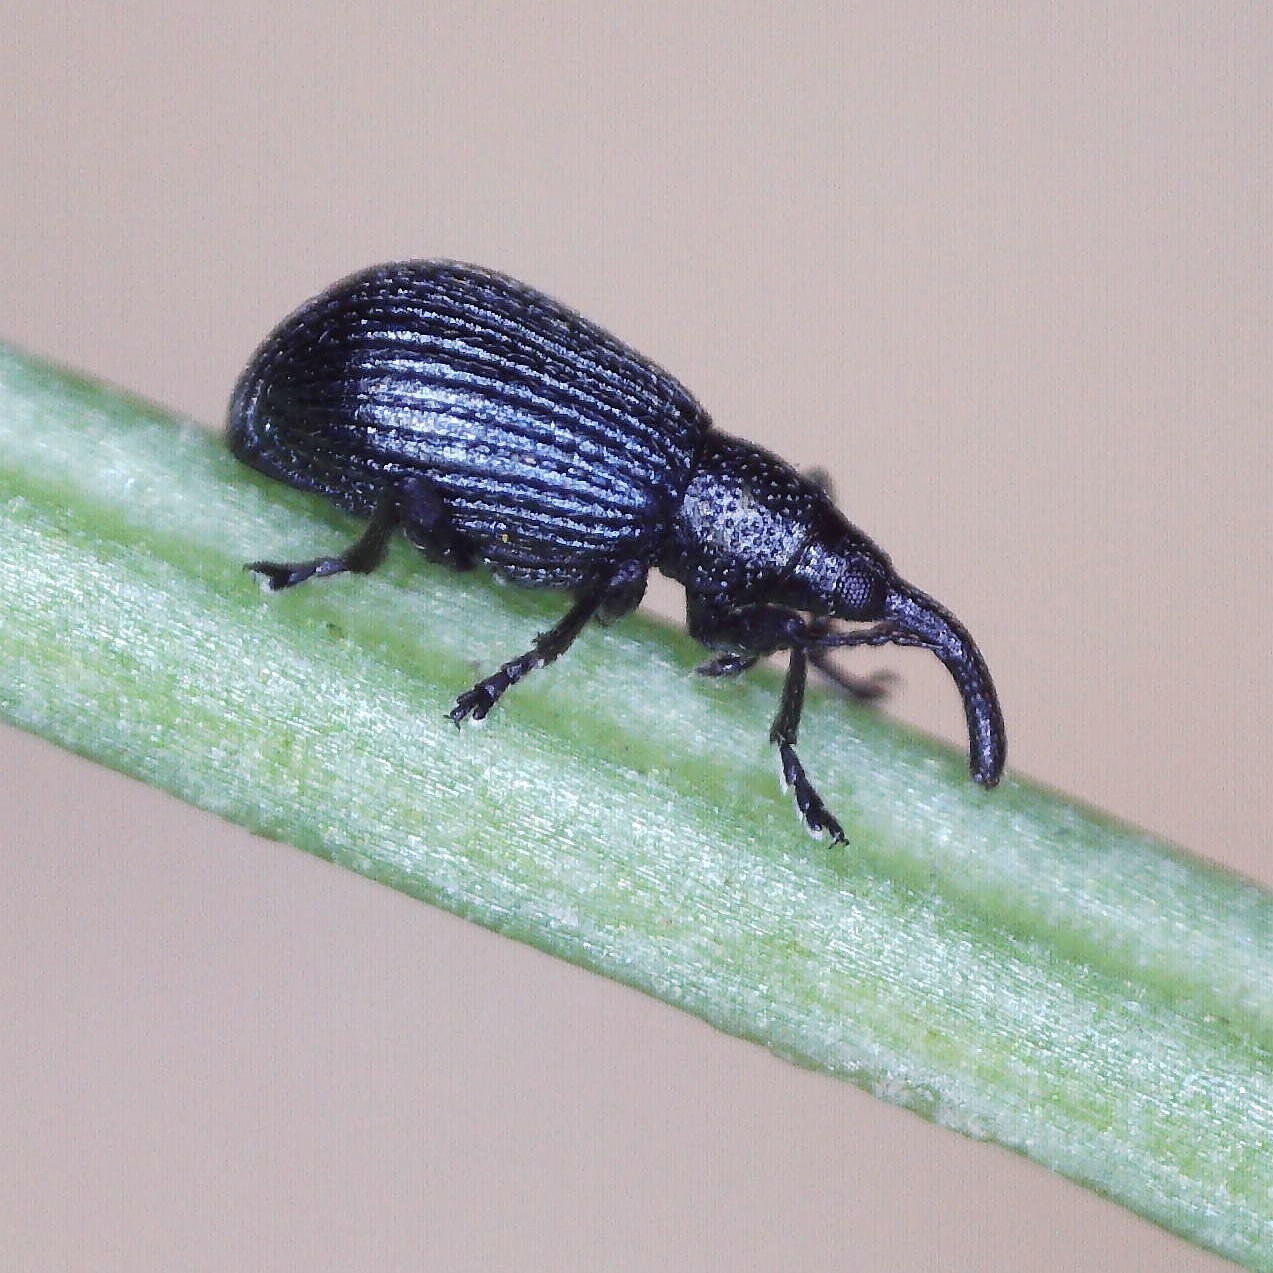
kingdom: Animalia
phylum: Arthropoda
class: Insecta
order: Coleoptera
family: Apionidae
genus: Ischnopterapion
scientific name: Ischnopterapion virens
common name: White clover weevil
